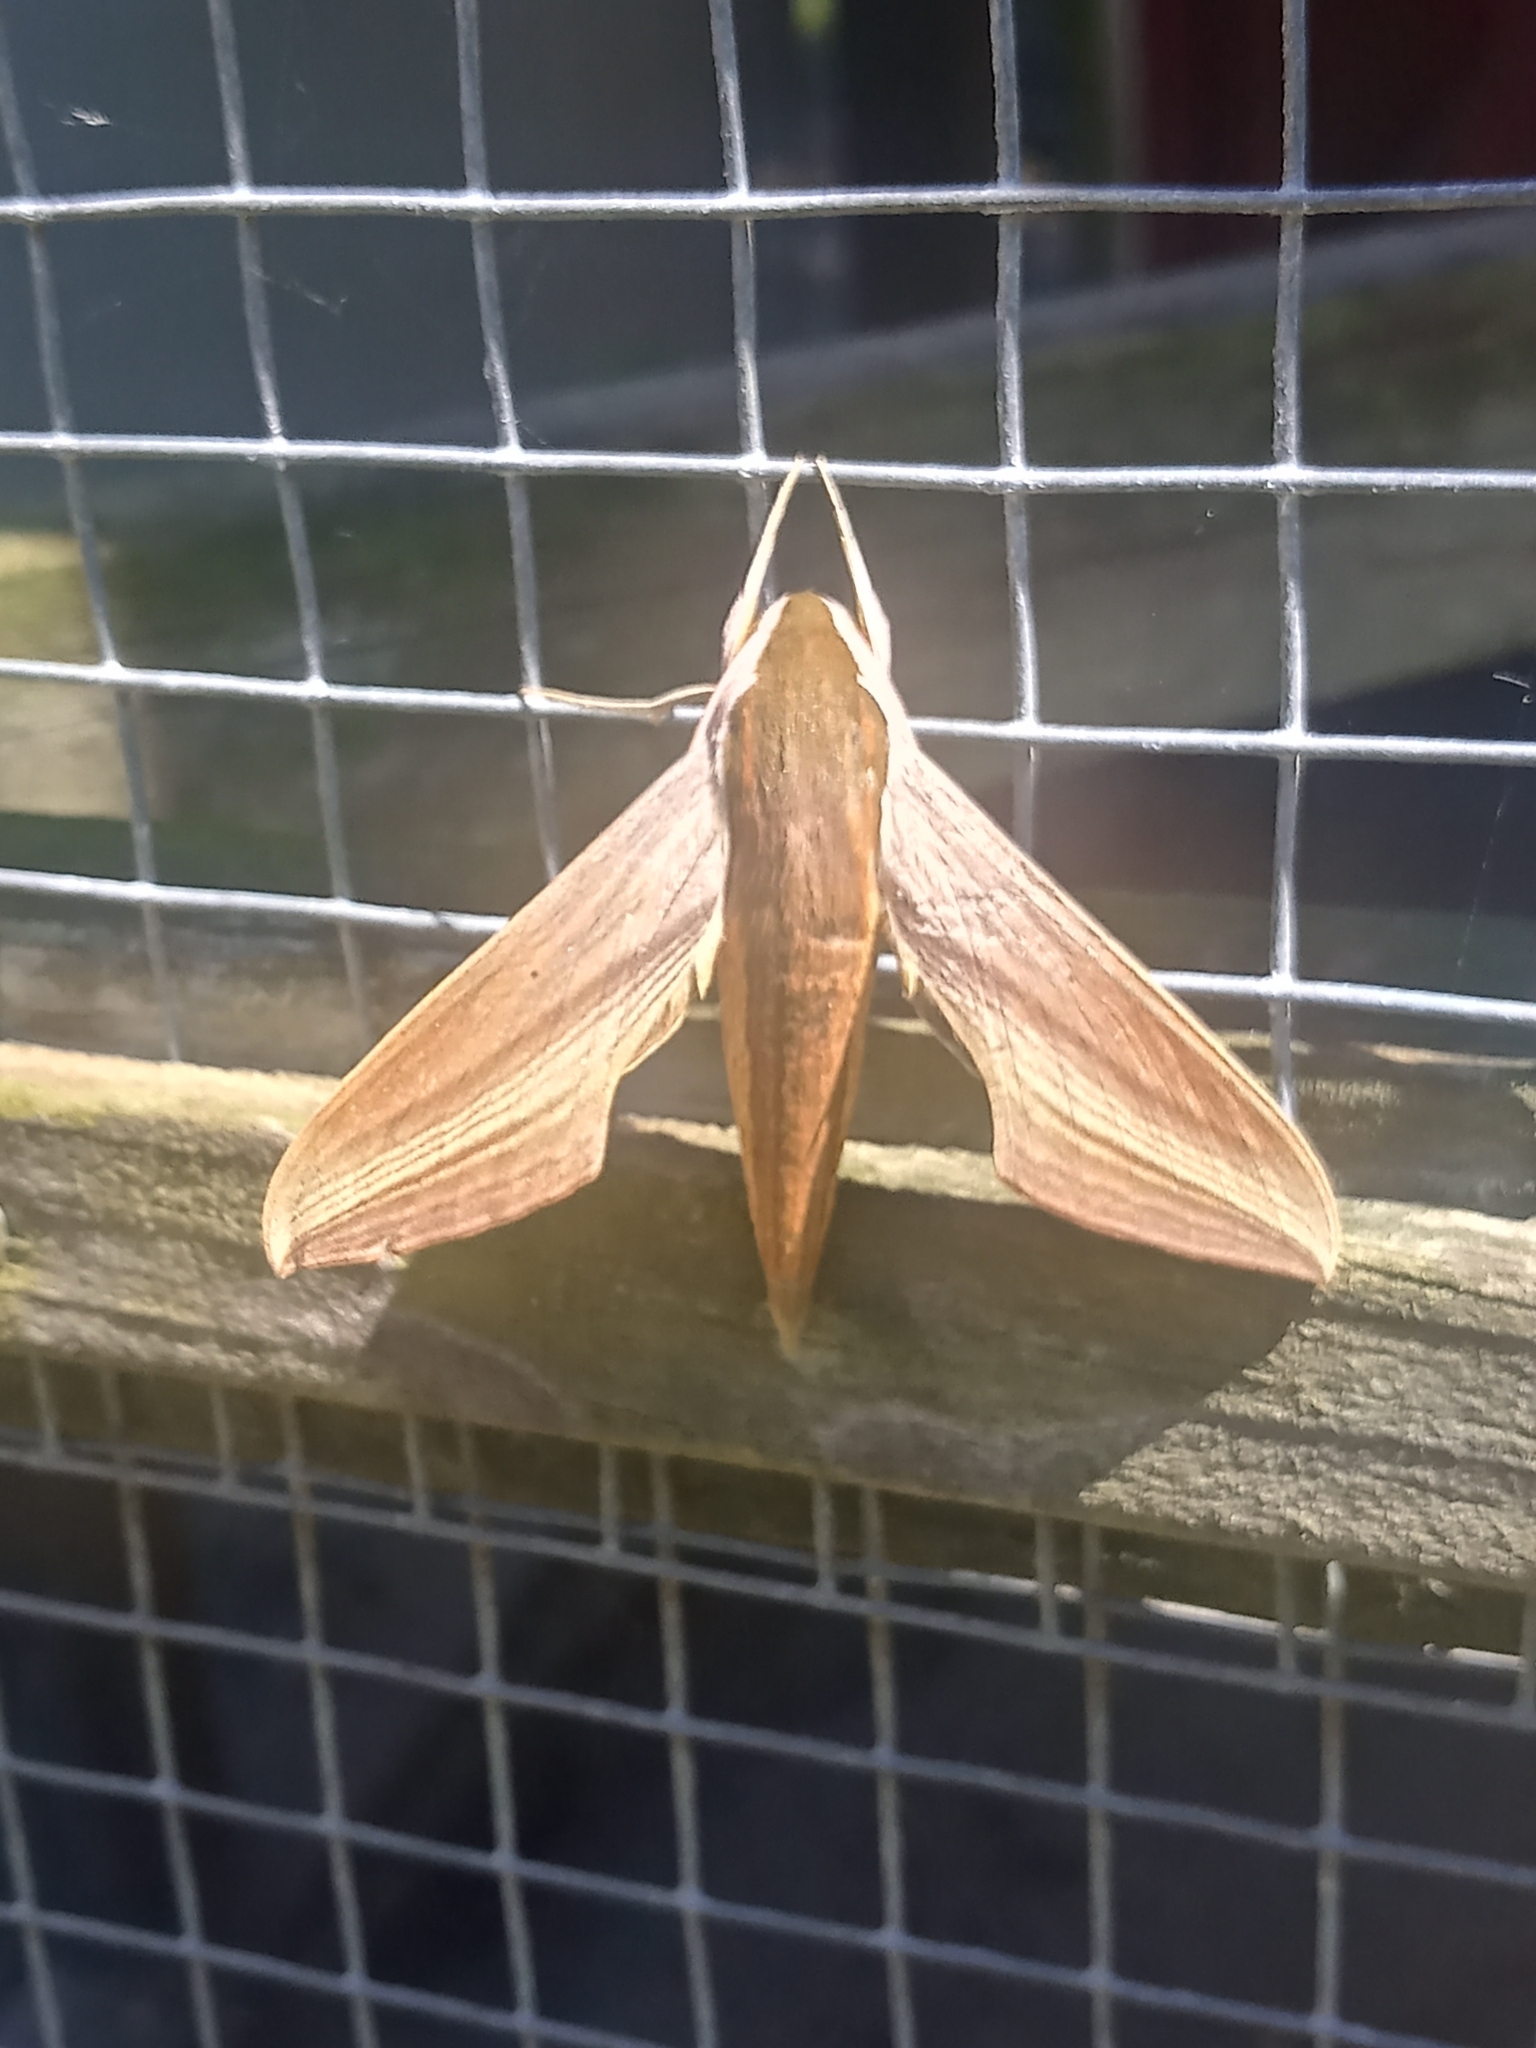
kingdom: Animalia
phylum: Arthropoda
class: Insecta
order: Lepidoptera
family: Sphingidae
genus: Xylophanes
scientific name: Xylophanes tersa
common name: Tersa sphinx
